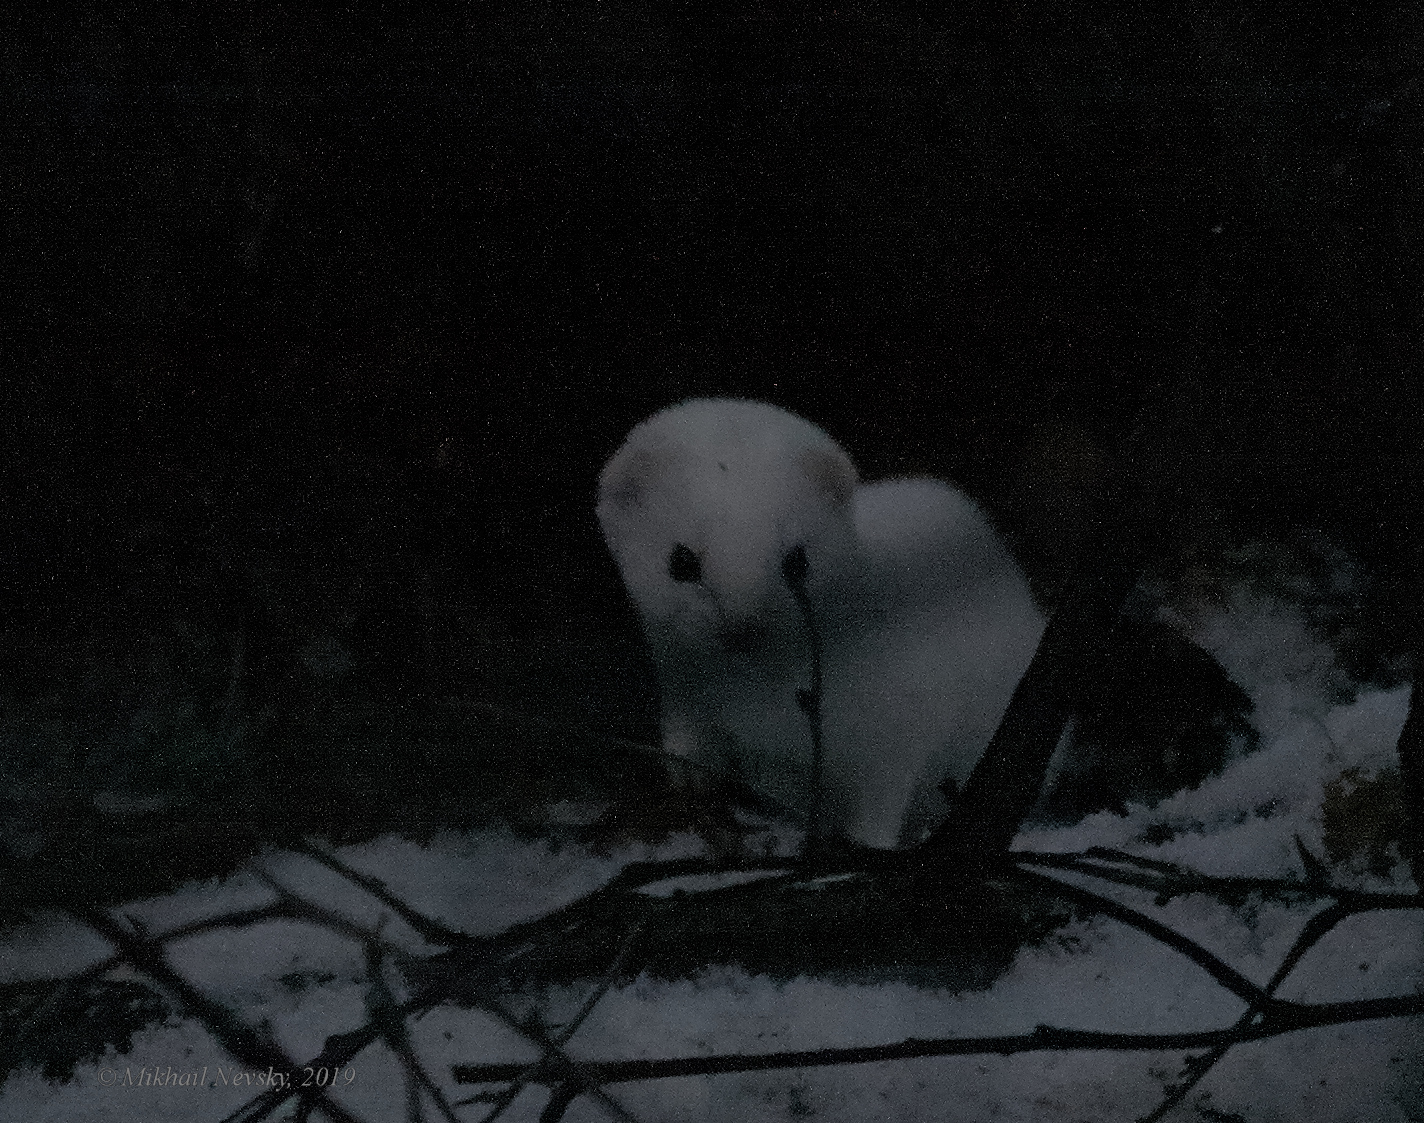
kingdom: Animalia
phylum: Chordata
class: Mammalia
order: Carnivora
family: Mustelidae
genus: Mustela
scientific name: Mustela nivalis
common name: Least weasel
